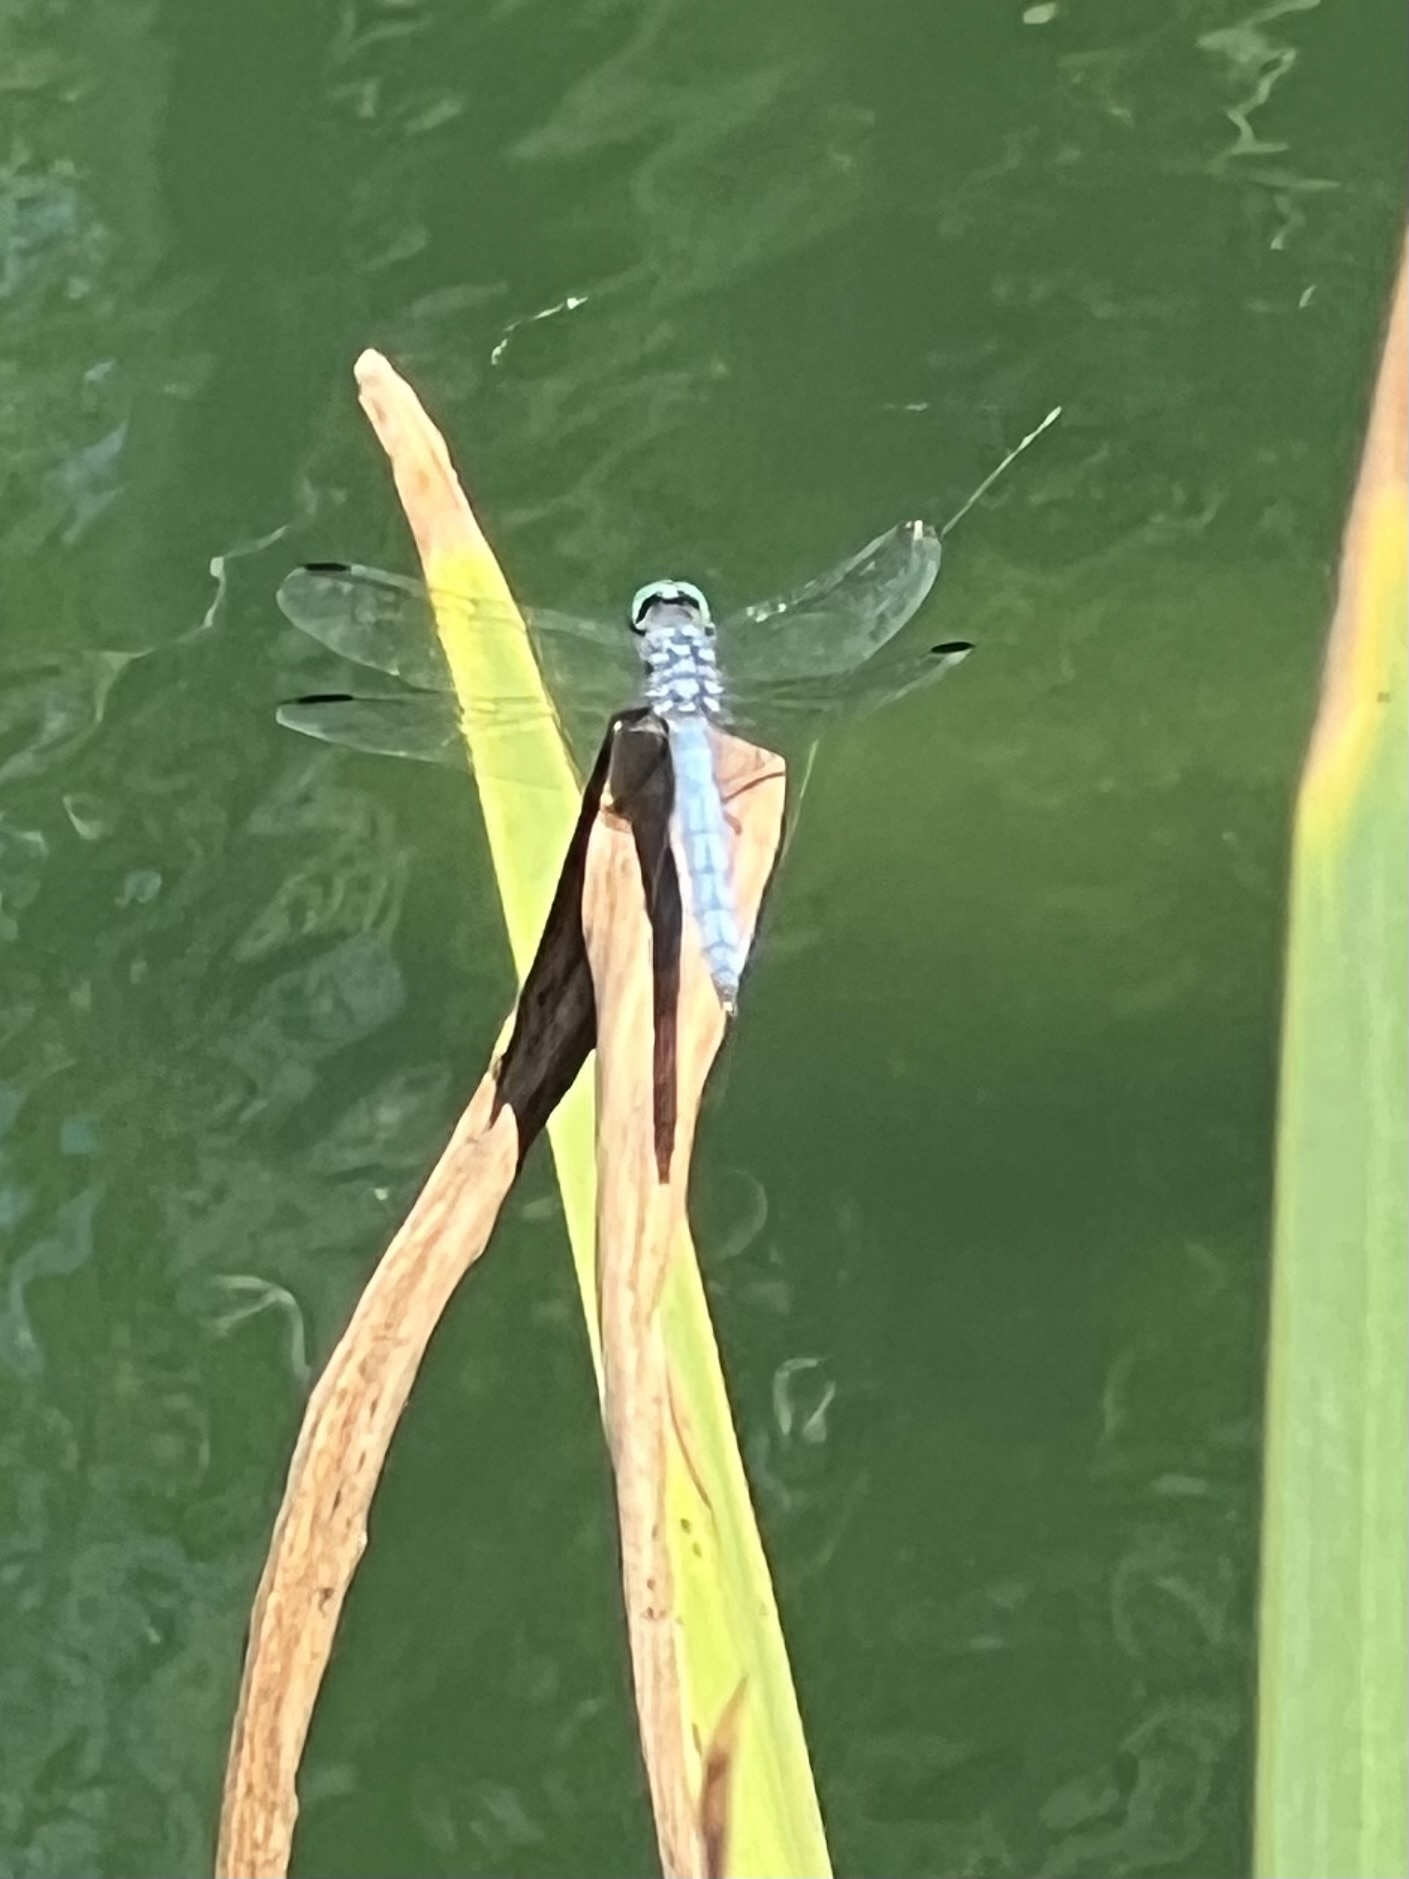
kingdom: Animalia
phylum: Arthropoda
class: Insecta
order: Odonata
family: Libellulidae
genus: Pachydiplax
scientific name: Pachydiplax longipennis
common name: Blue dasher
